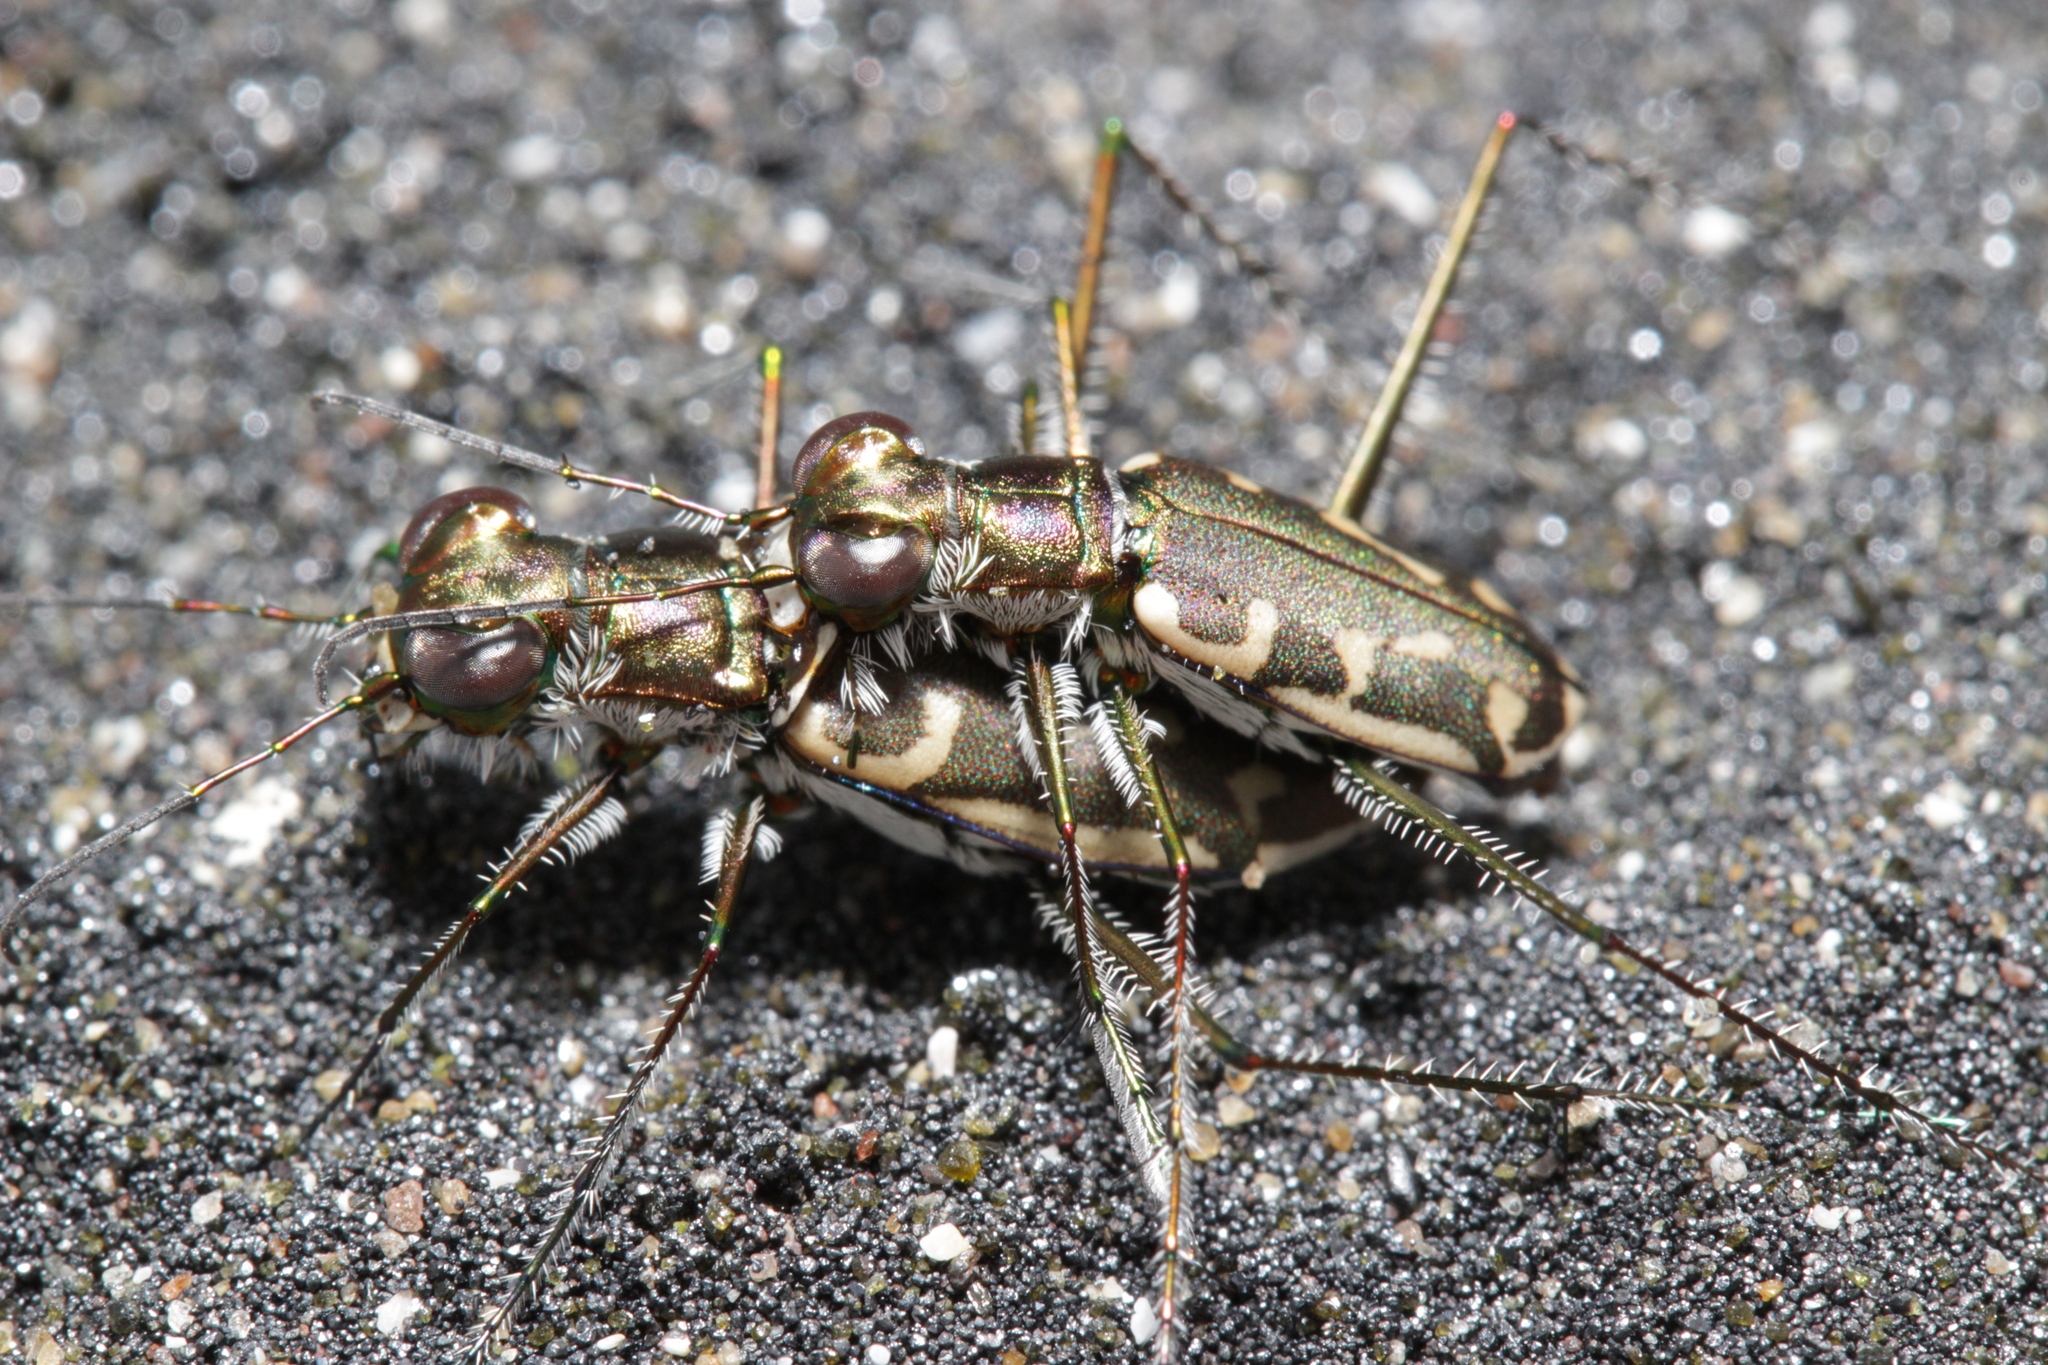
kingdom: Animalia
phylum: Arthropoda
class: Insecta
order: Coleoptera
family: Carabidae
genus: Opilidia
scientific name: Opilidia macrocnema
